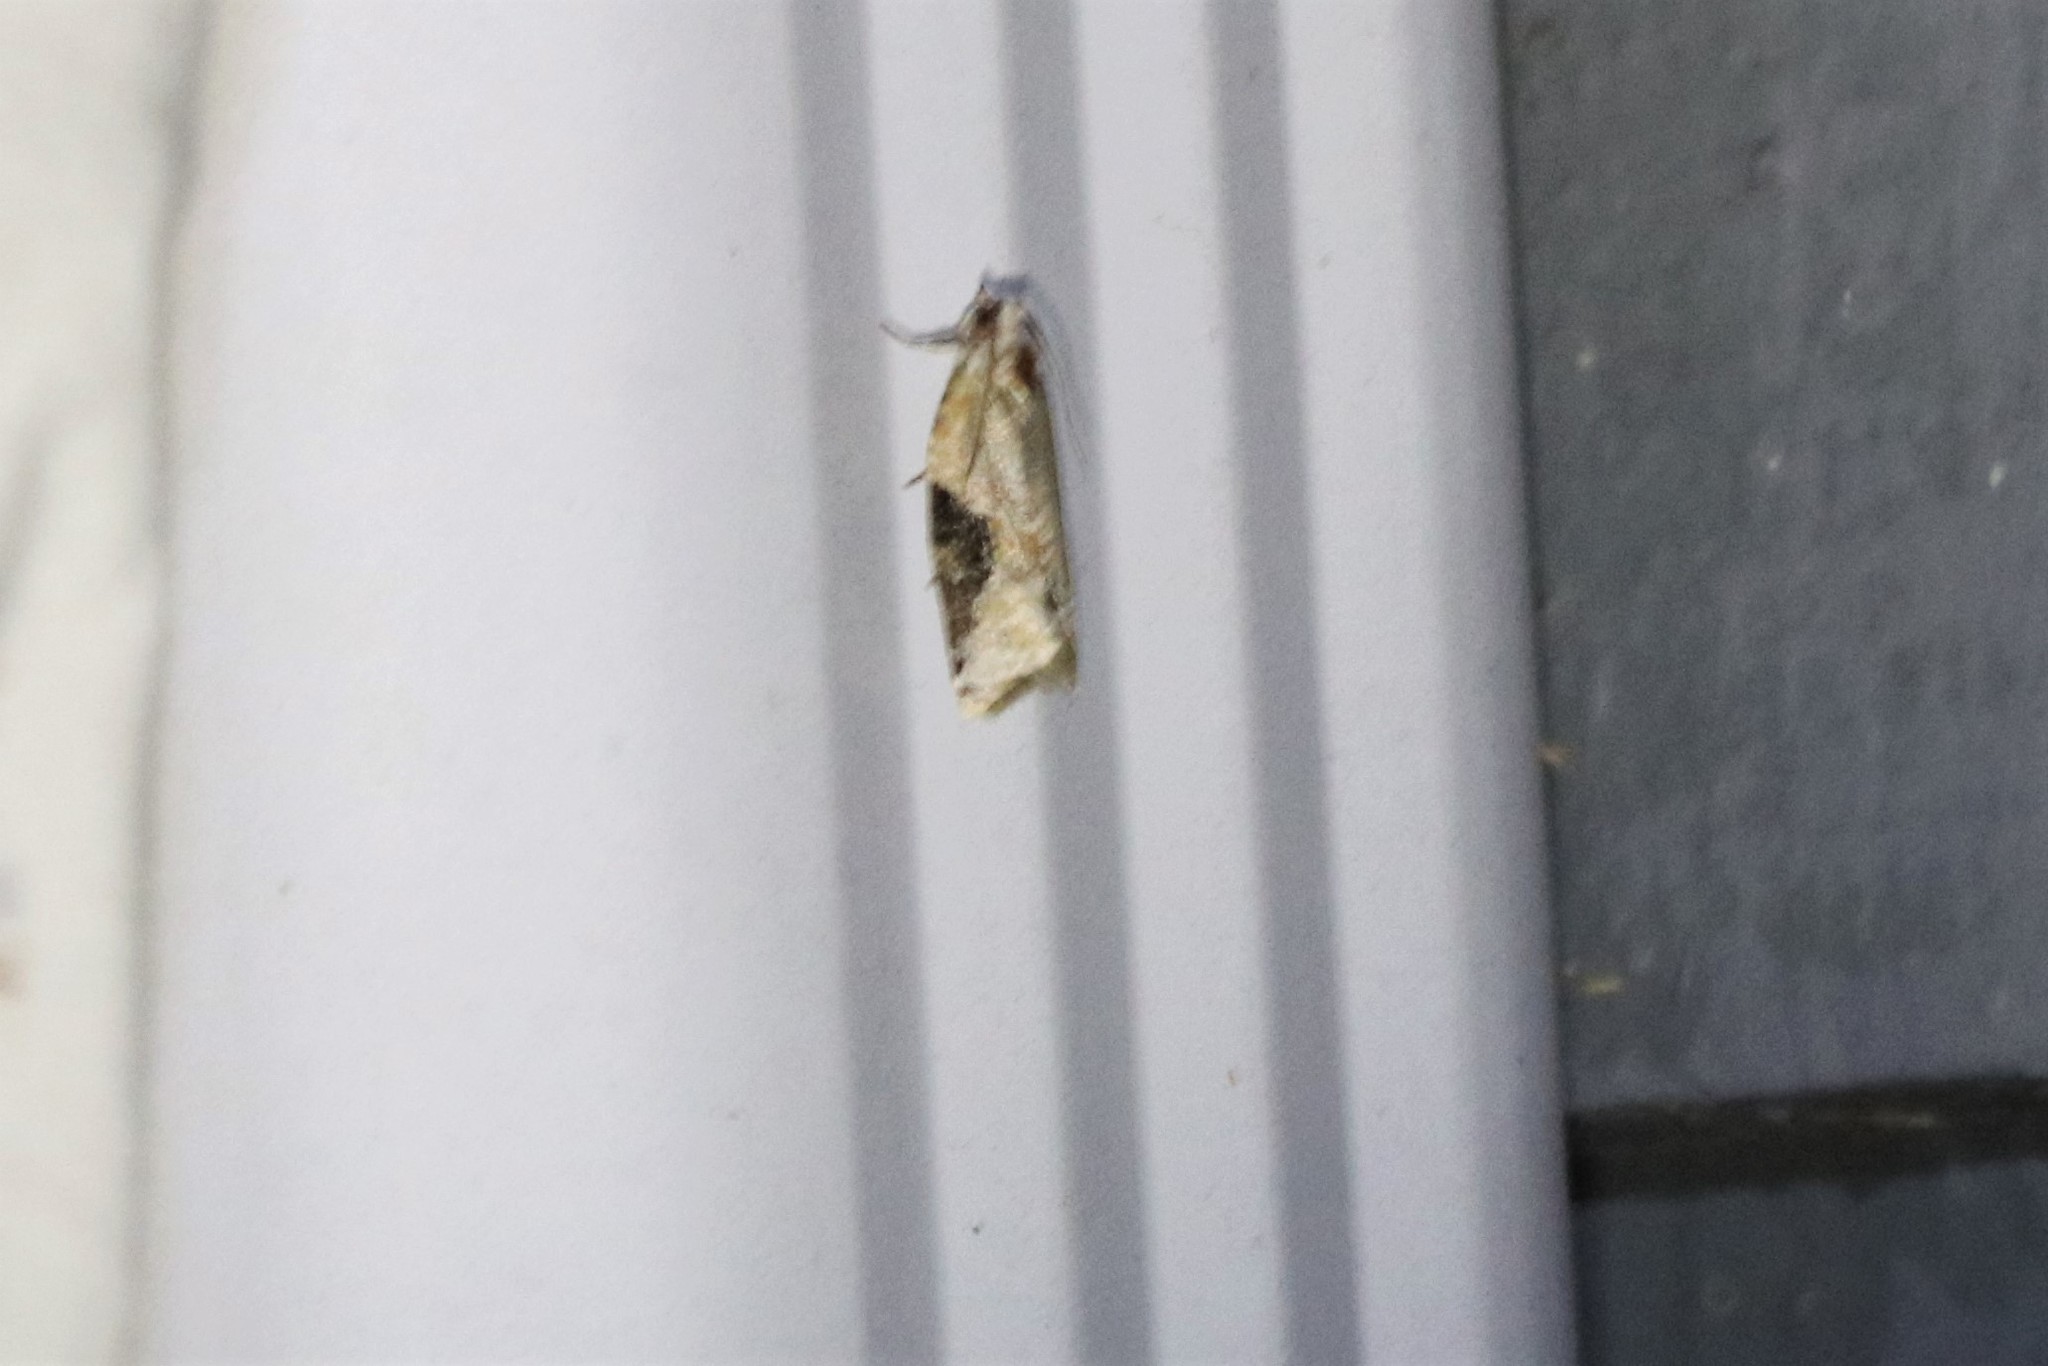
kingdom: Animalia
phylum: Arthropoda
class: Insecta
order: Lepidoptera
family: Tortricidae
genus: Argyrotaenia
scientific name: Argyrotaenia mariana
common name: Gray-banded leafroller moth
